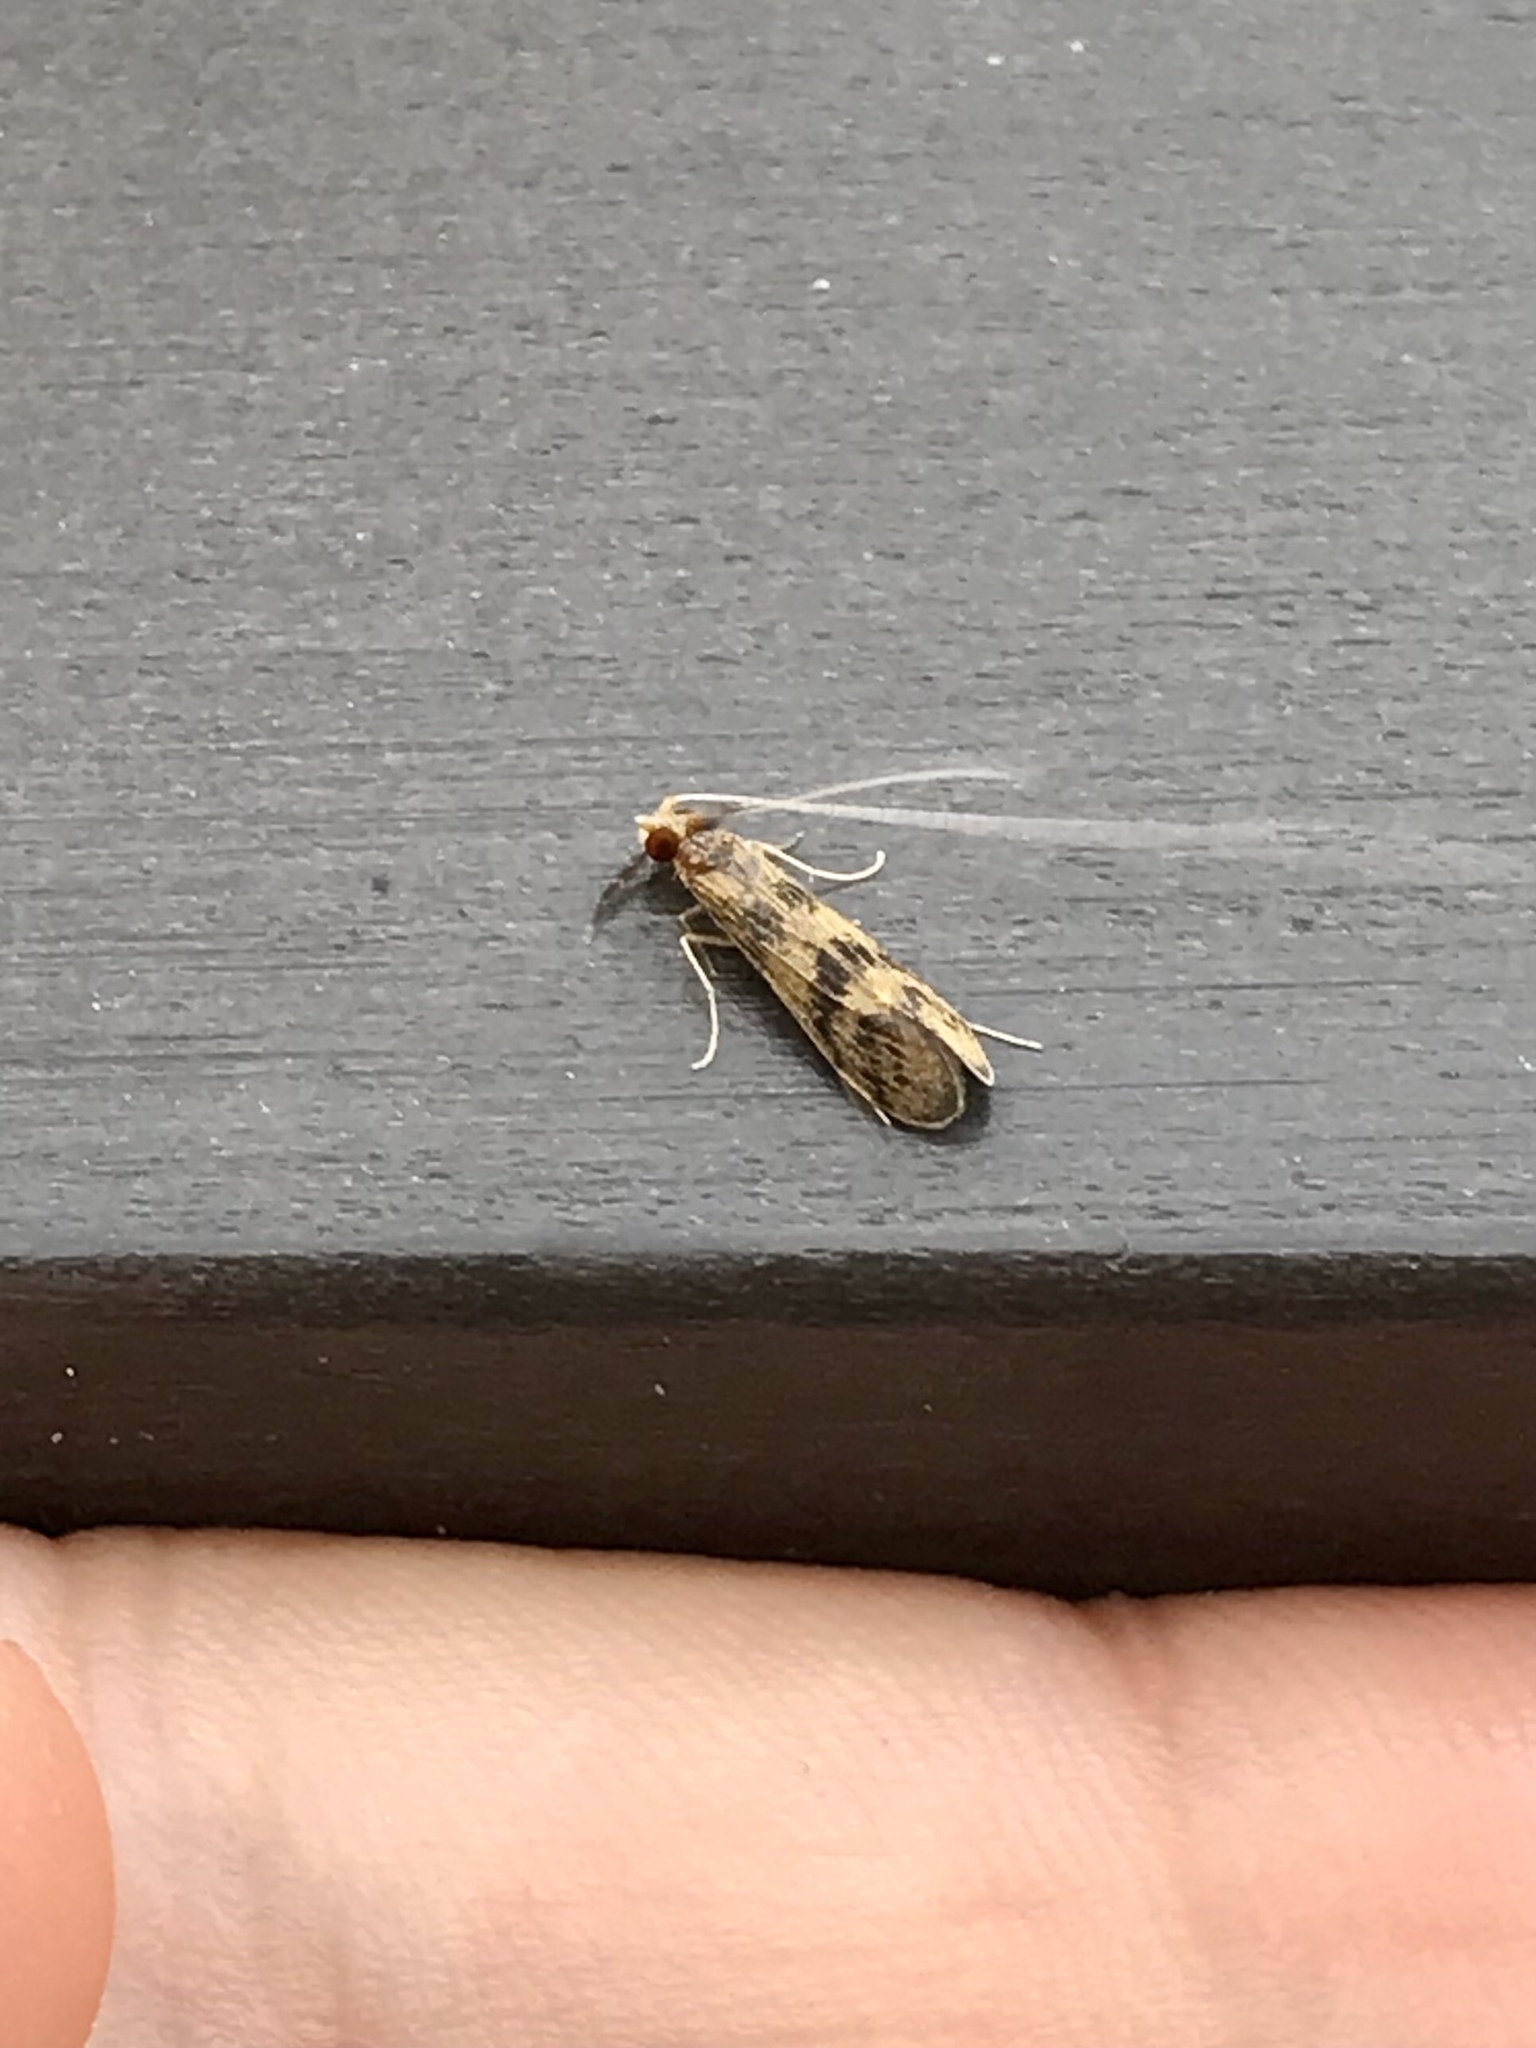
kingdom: Animalia
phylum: Arthropoda
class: Insecta
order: Trichoptera
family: Leptoceridae
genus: Mystacides
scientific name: Mystacides interjectus
